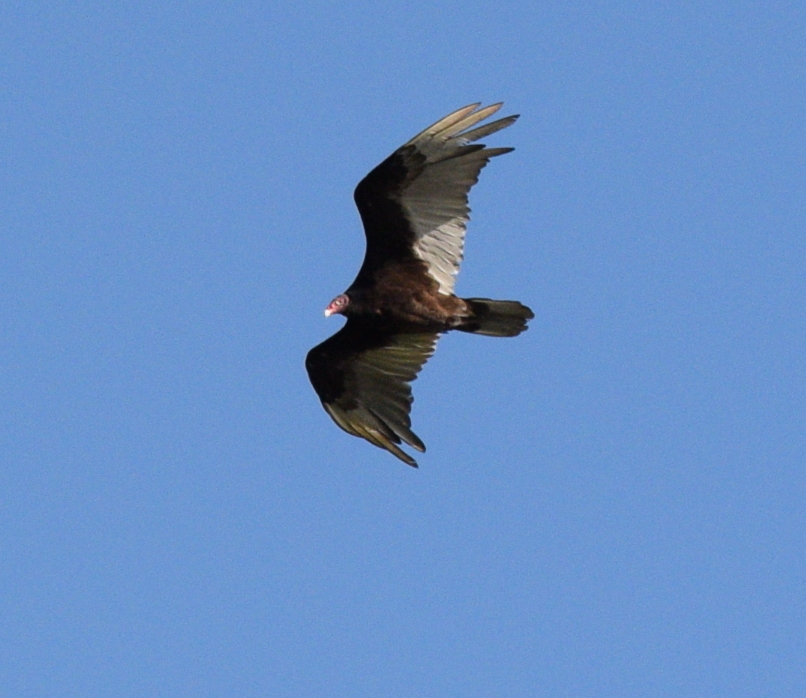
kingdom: Animalia
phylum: Chordata
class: Aves
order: Accipitriformes
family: Cathartidae
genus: Cathartes
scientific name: Cathartes aura
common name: Turkey vulture
